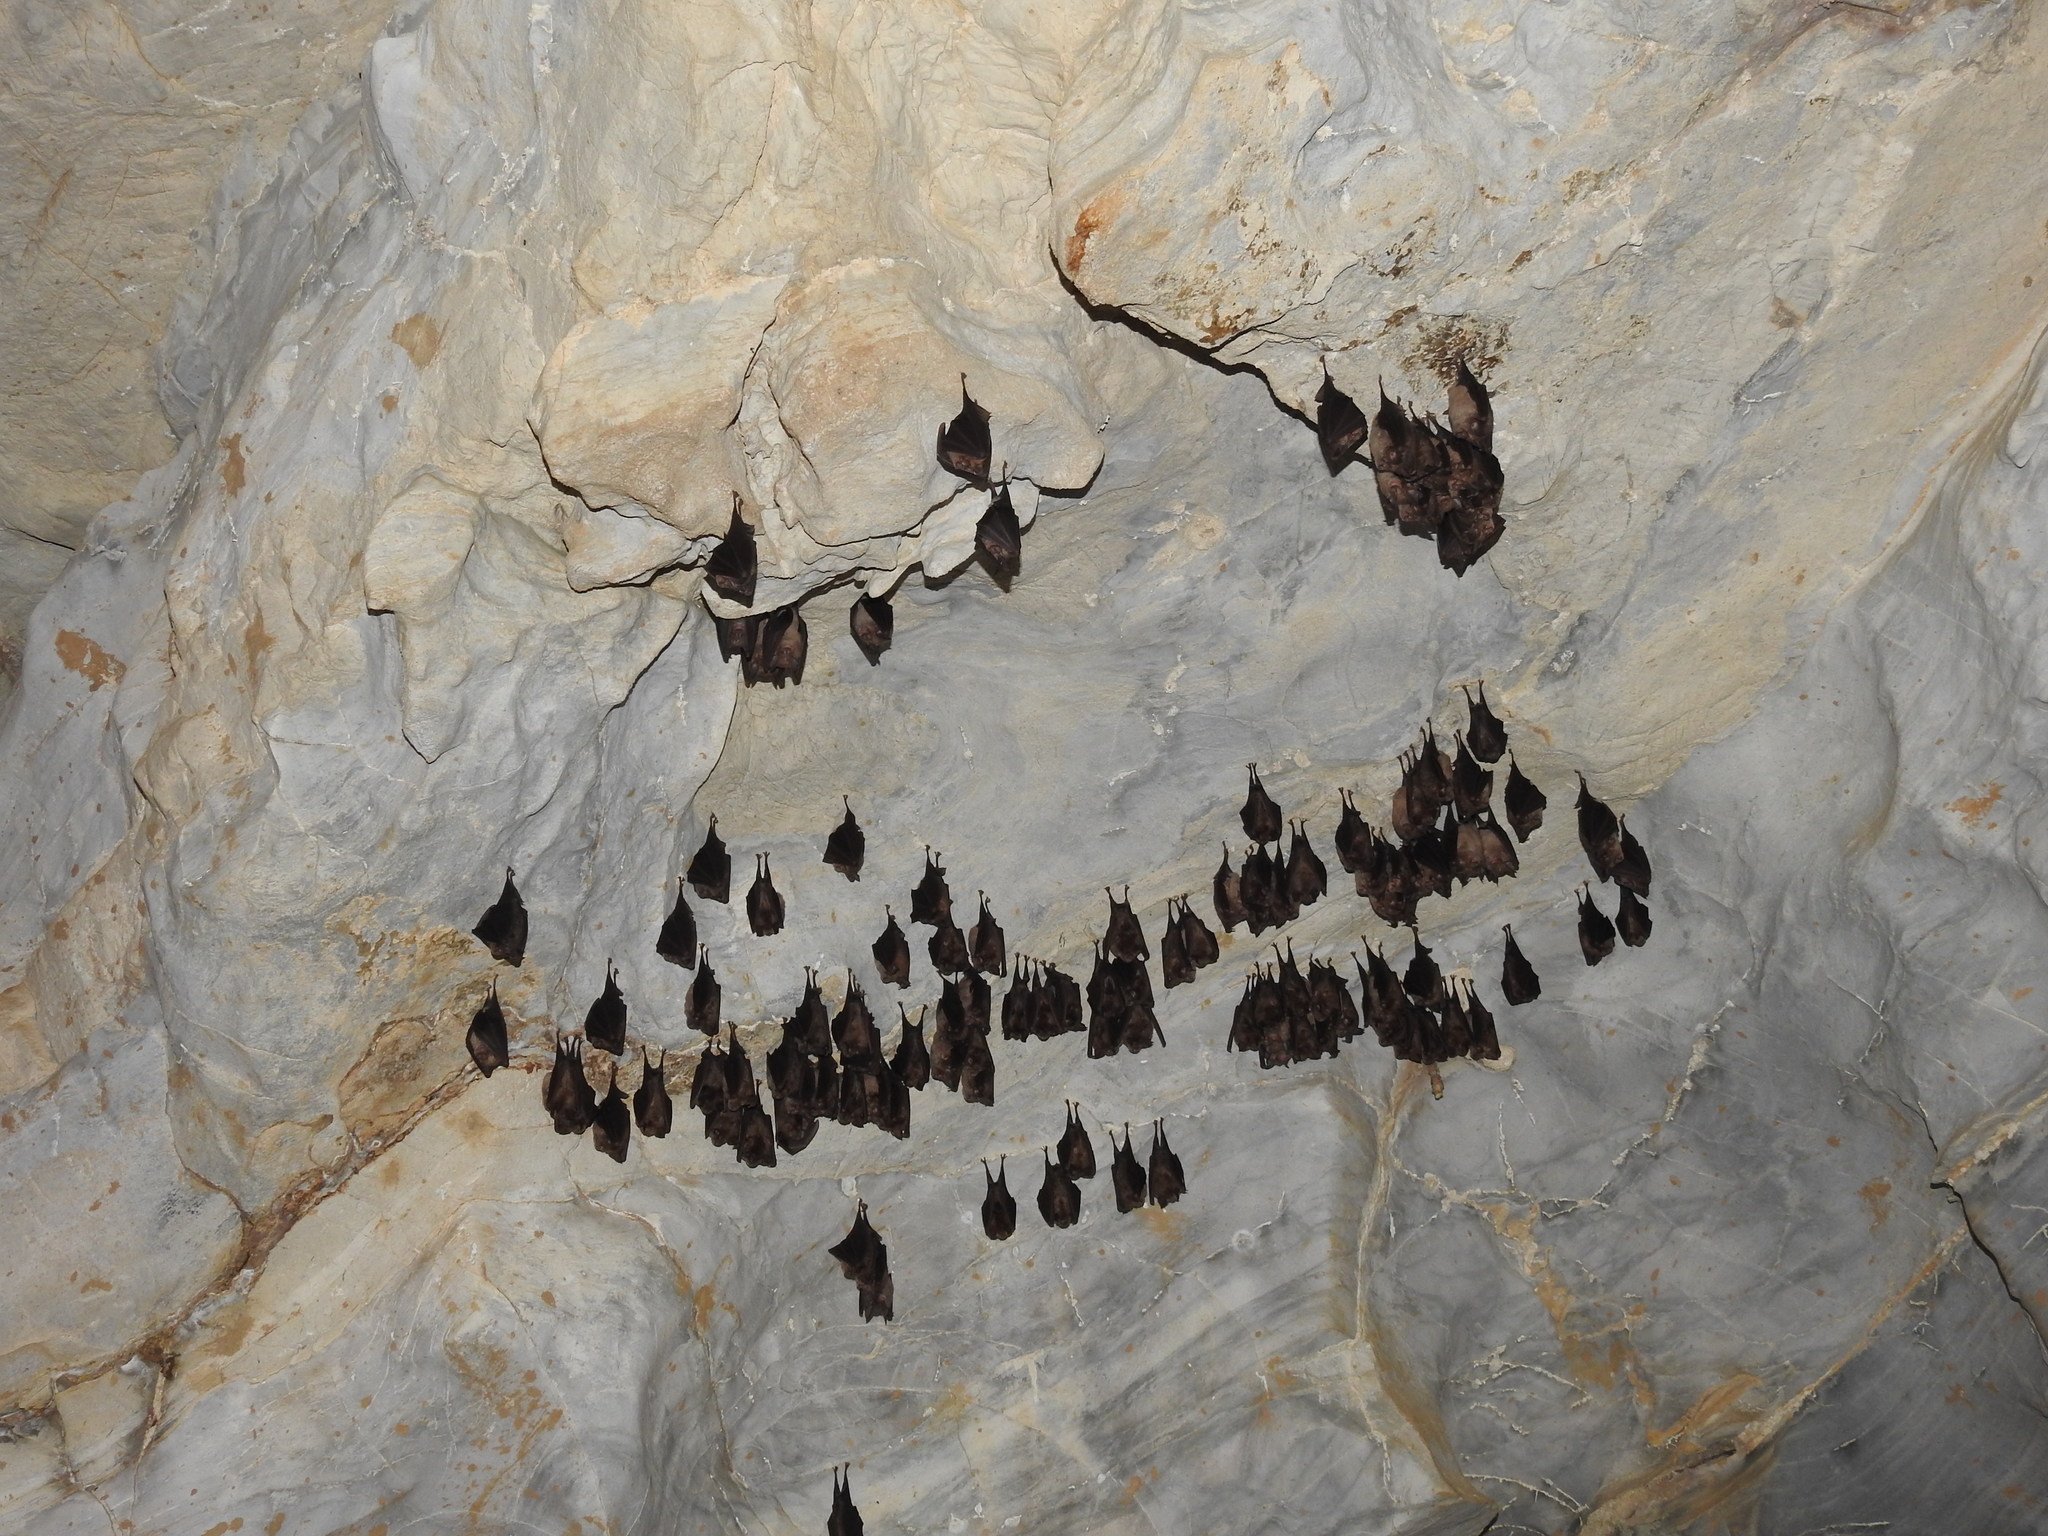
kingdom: Animalia
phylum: Chordata
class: Mammalia
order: Chiroptera
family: Rhinolophidae
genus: Rhinolophus
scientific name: Rhinolophus ferrumequinum
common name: Greater horseshoe bat
